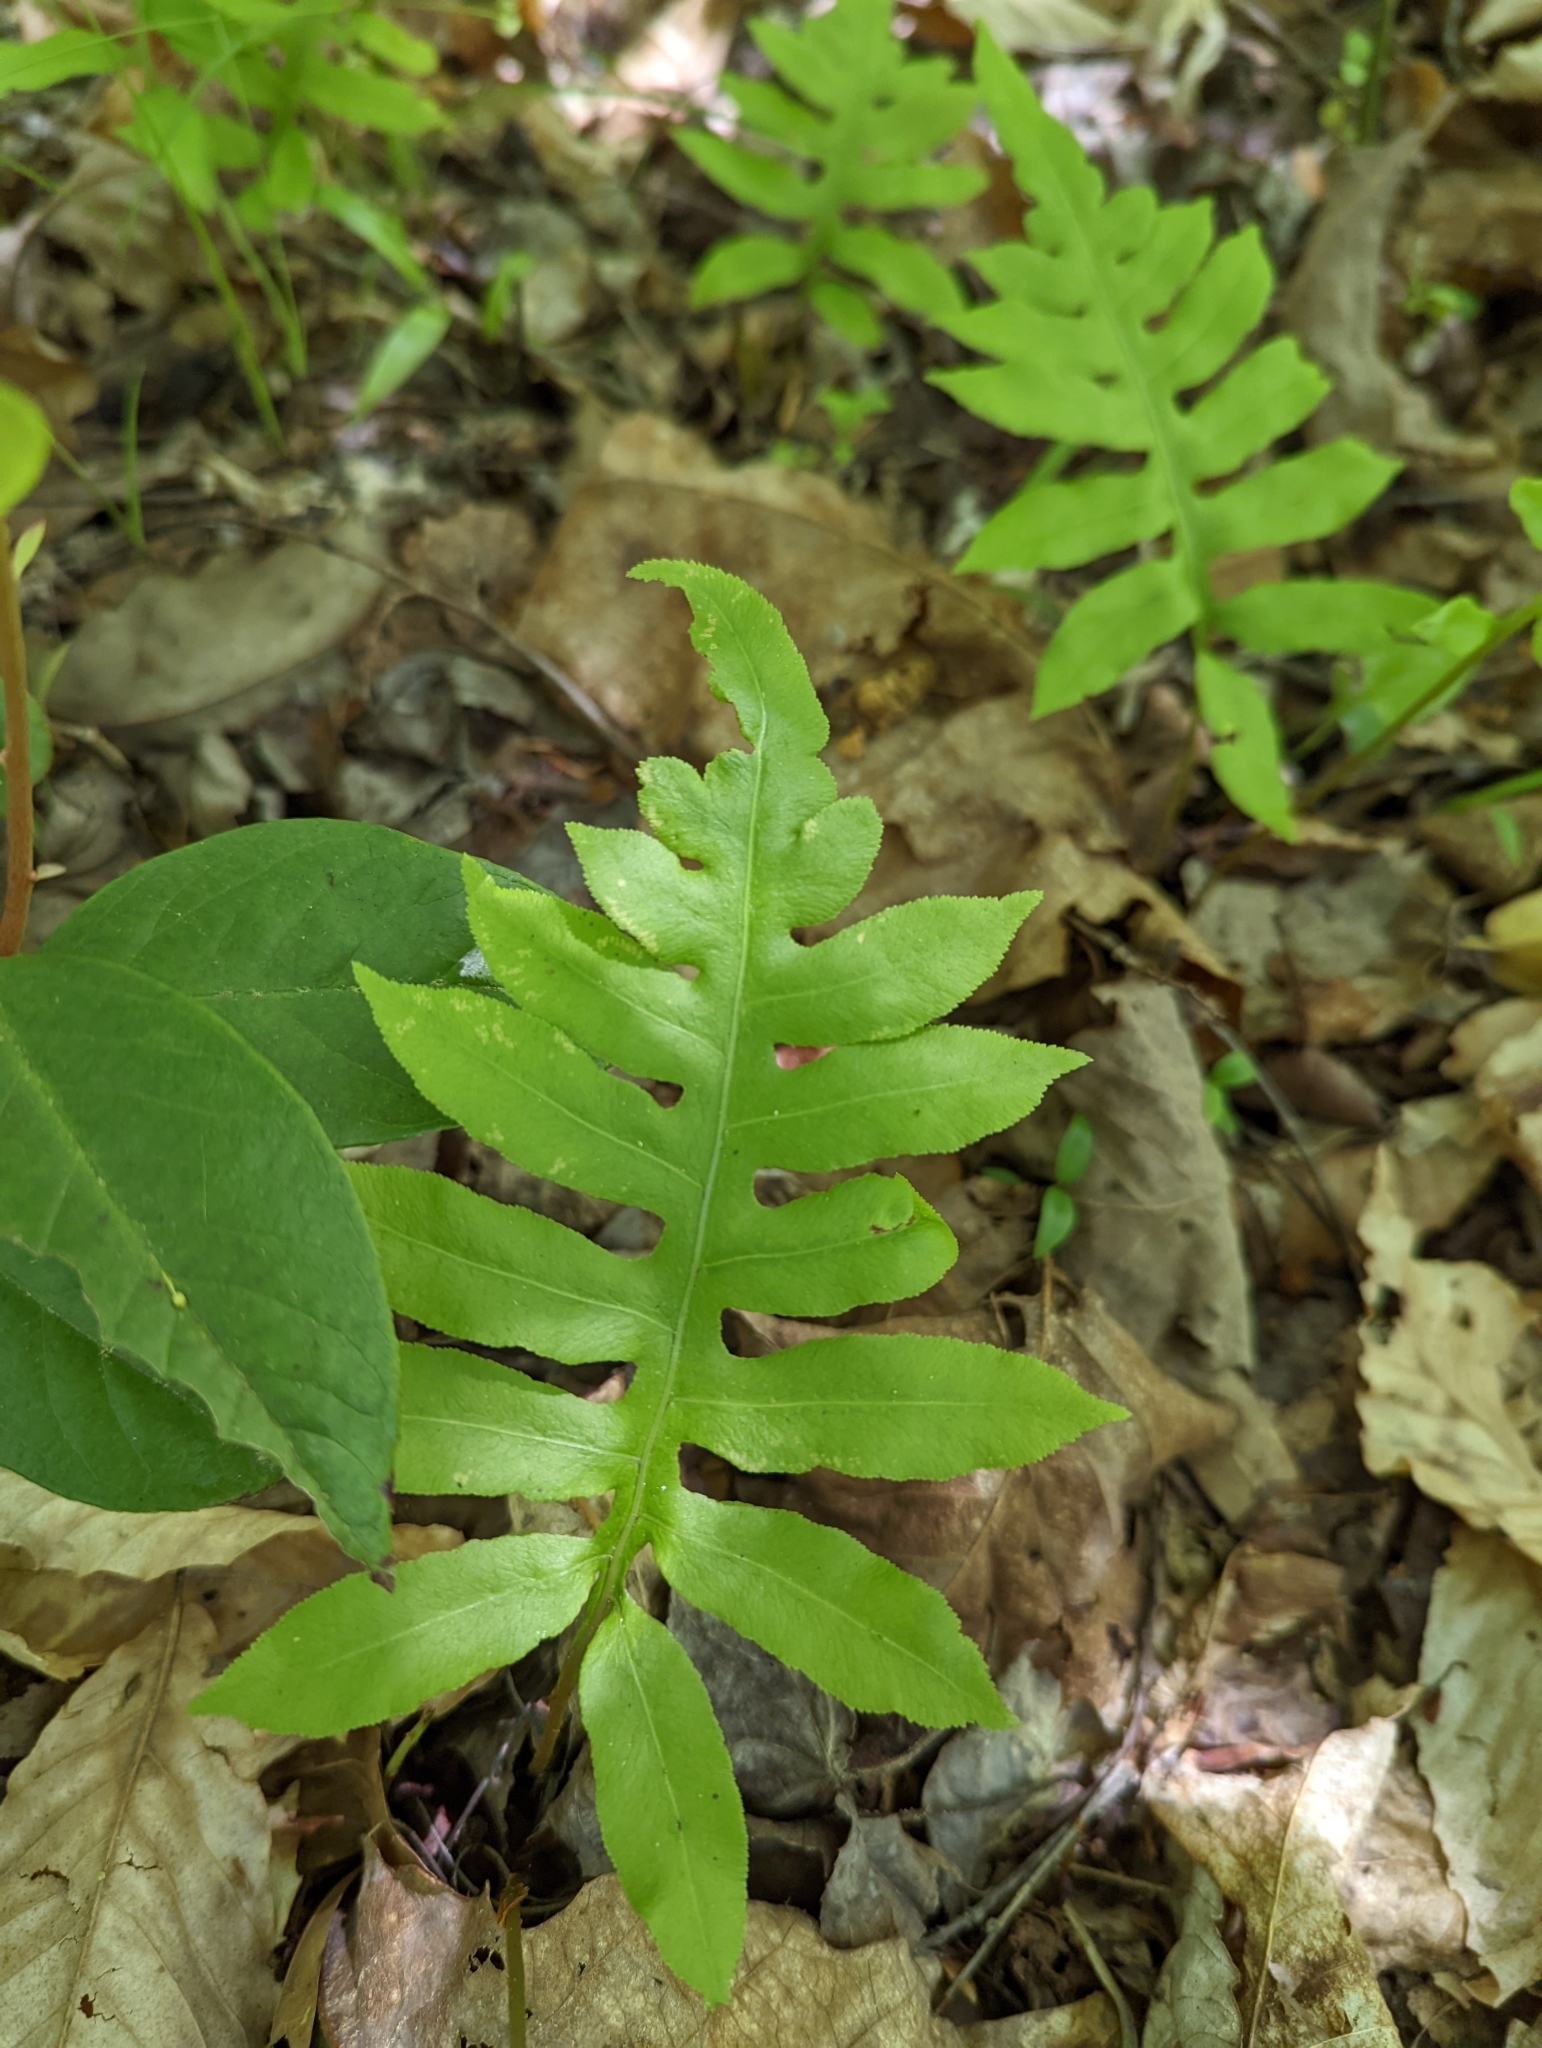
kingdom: Plantae
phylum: Tracheophyta
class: Polypodiopsida
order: Polypodiales
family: Blechnaceae
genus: Lorinseria
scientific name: Lorinseria areolata
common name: Dwarf chain fern
